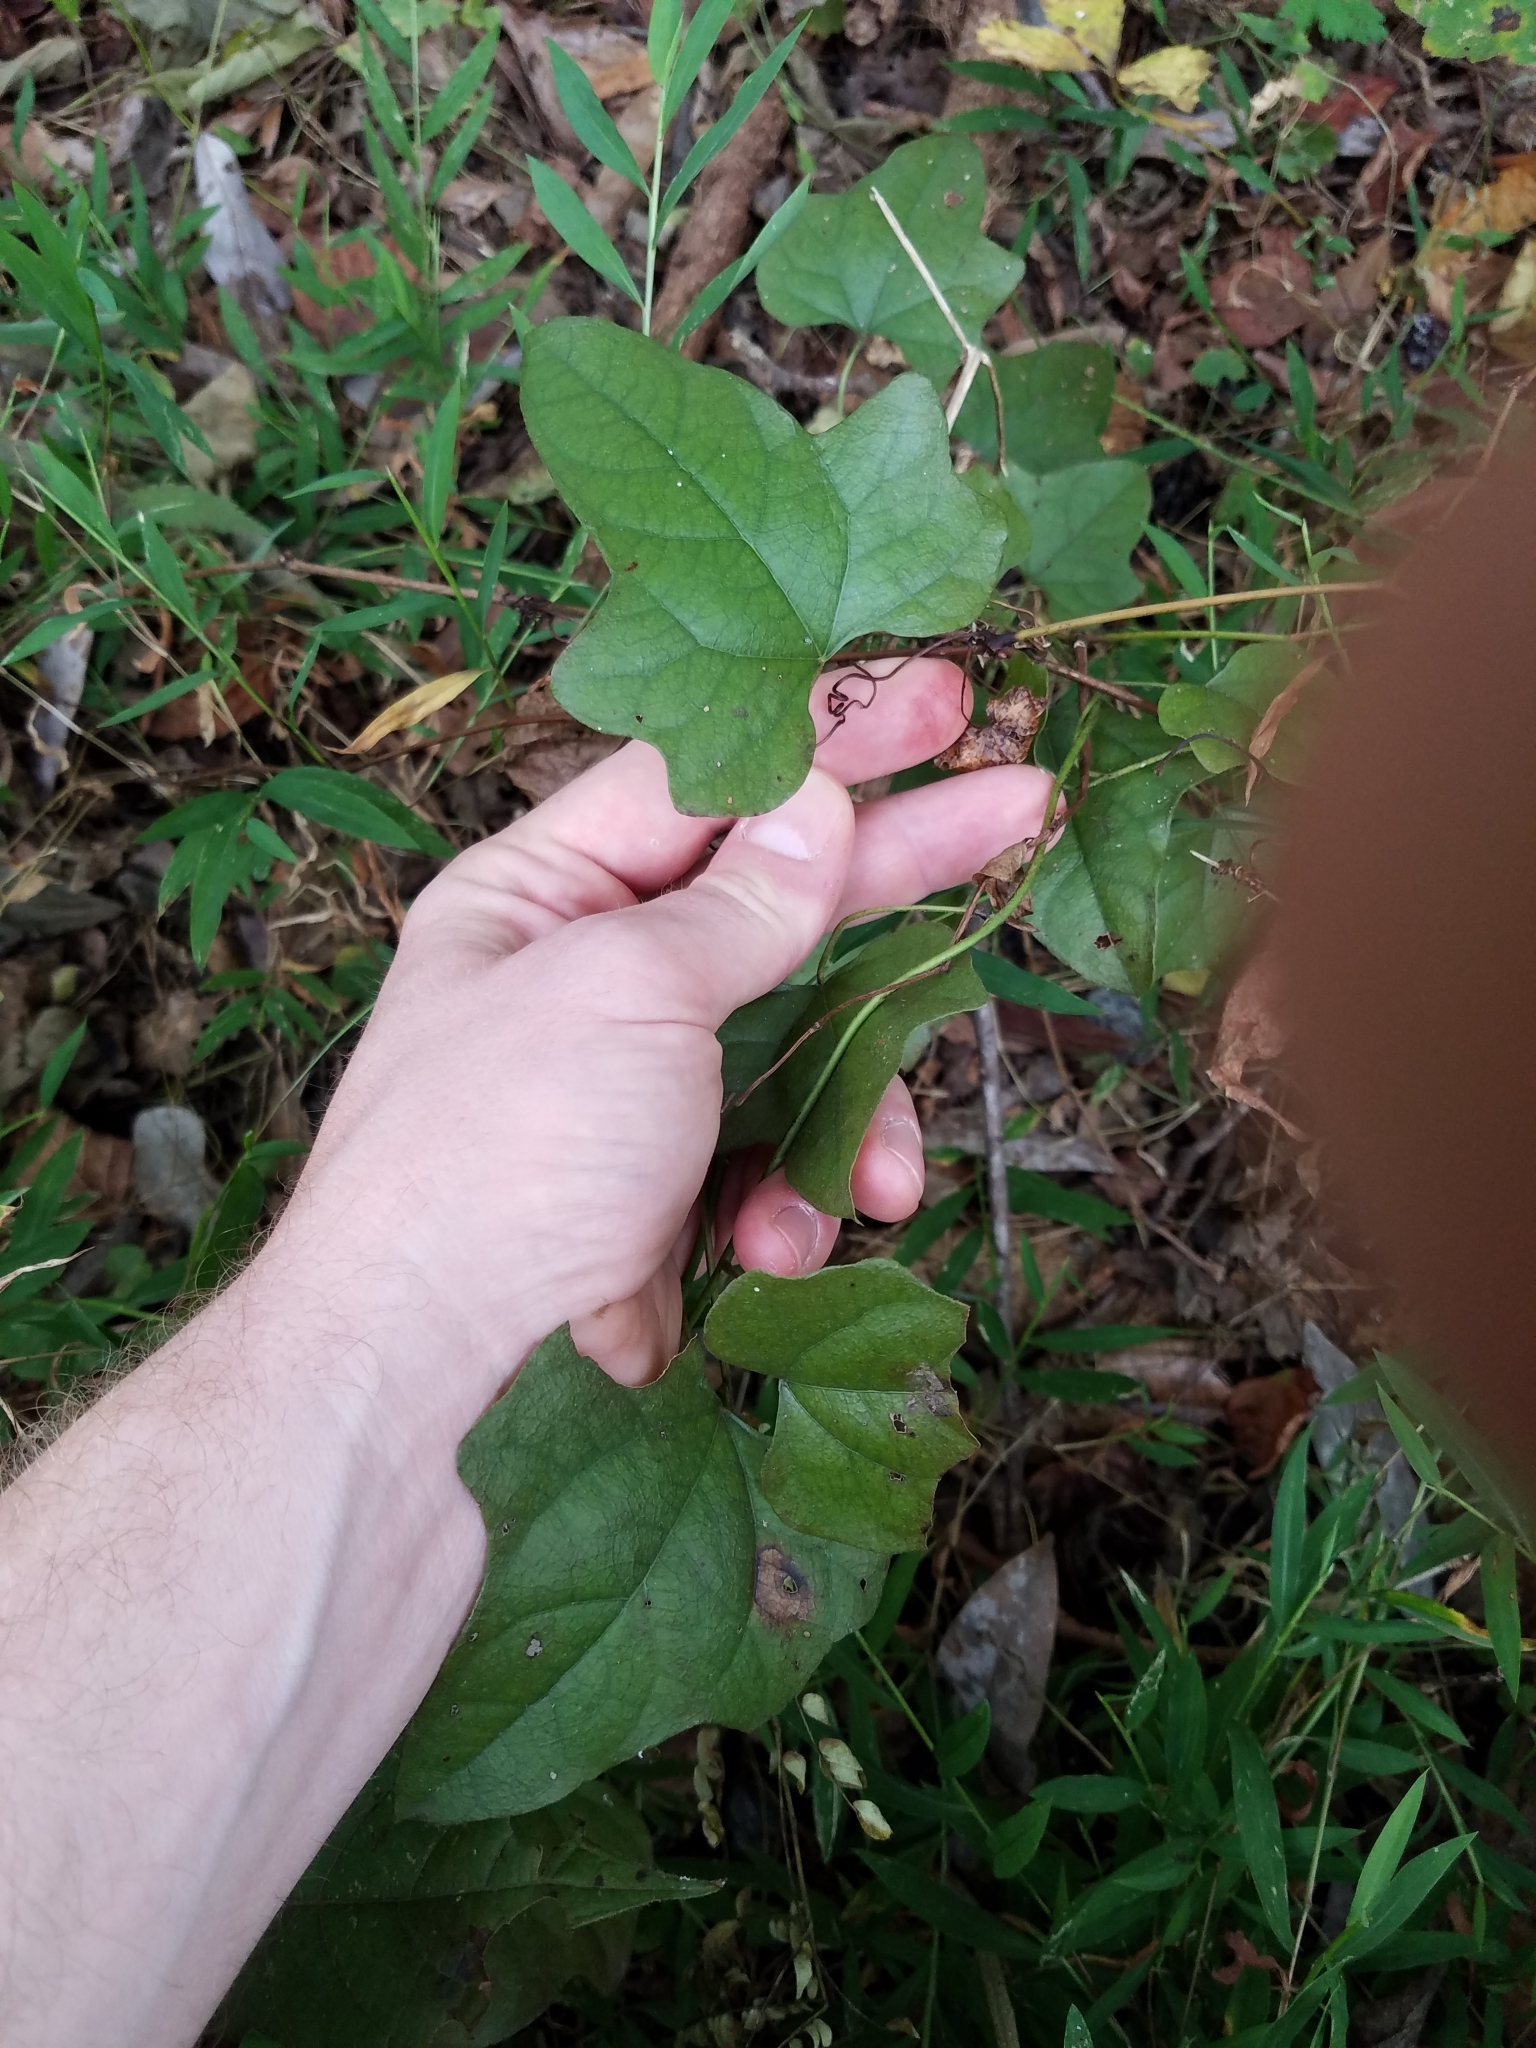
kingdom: Plantae
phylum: Tracheophyta
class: Magnoliopsida
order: Ranunculales
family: Menispermaceae
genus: Cocculus
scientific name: Cocculus carolinus
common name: Carolina moonseed
